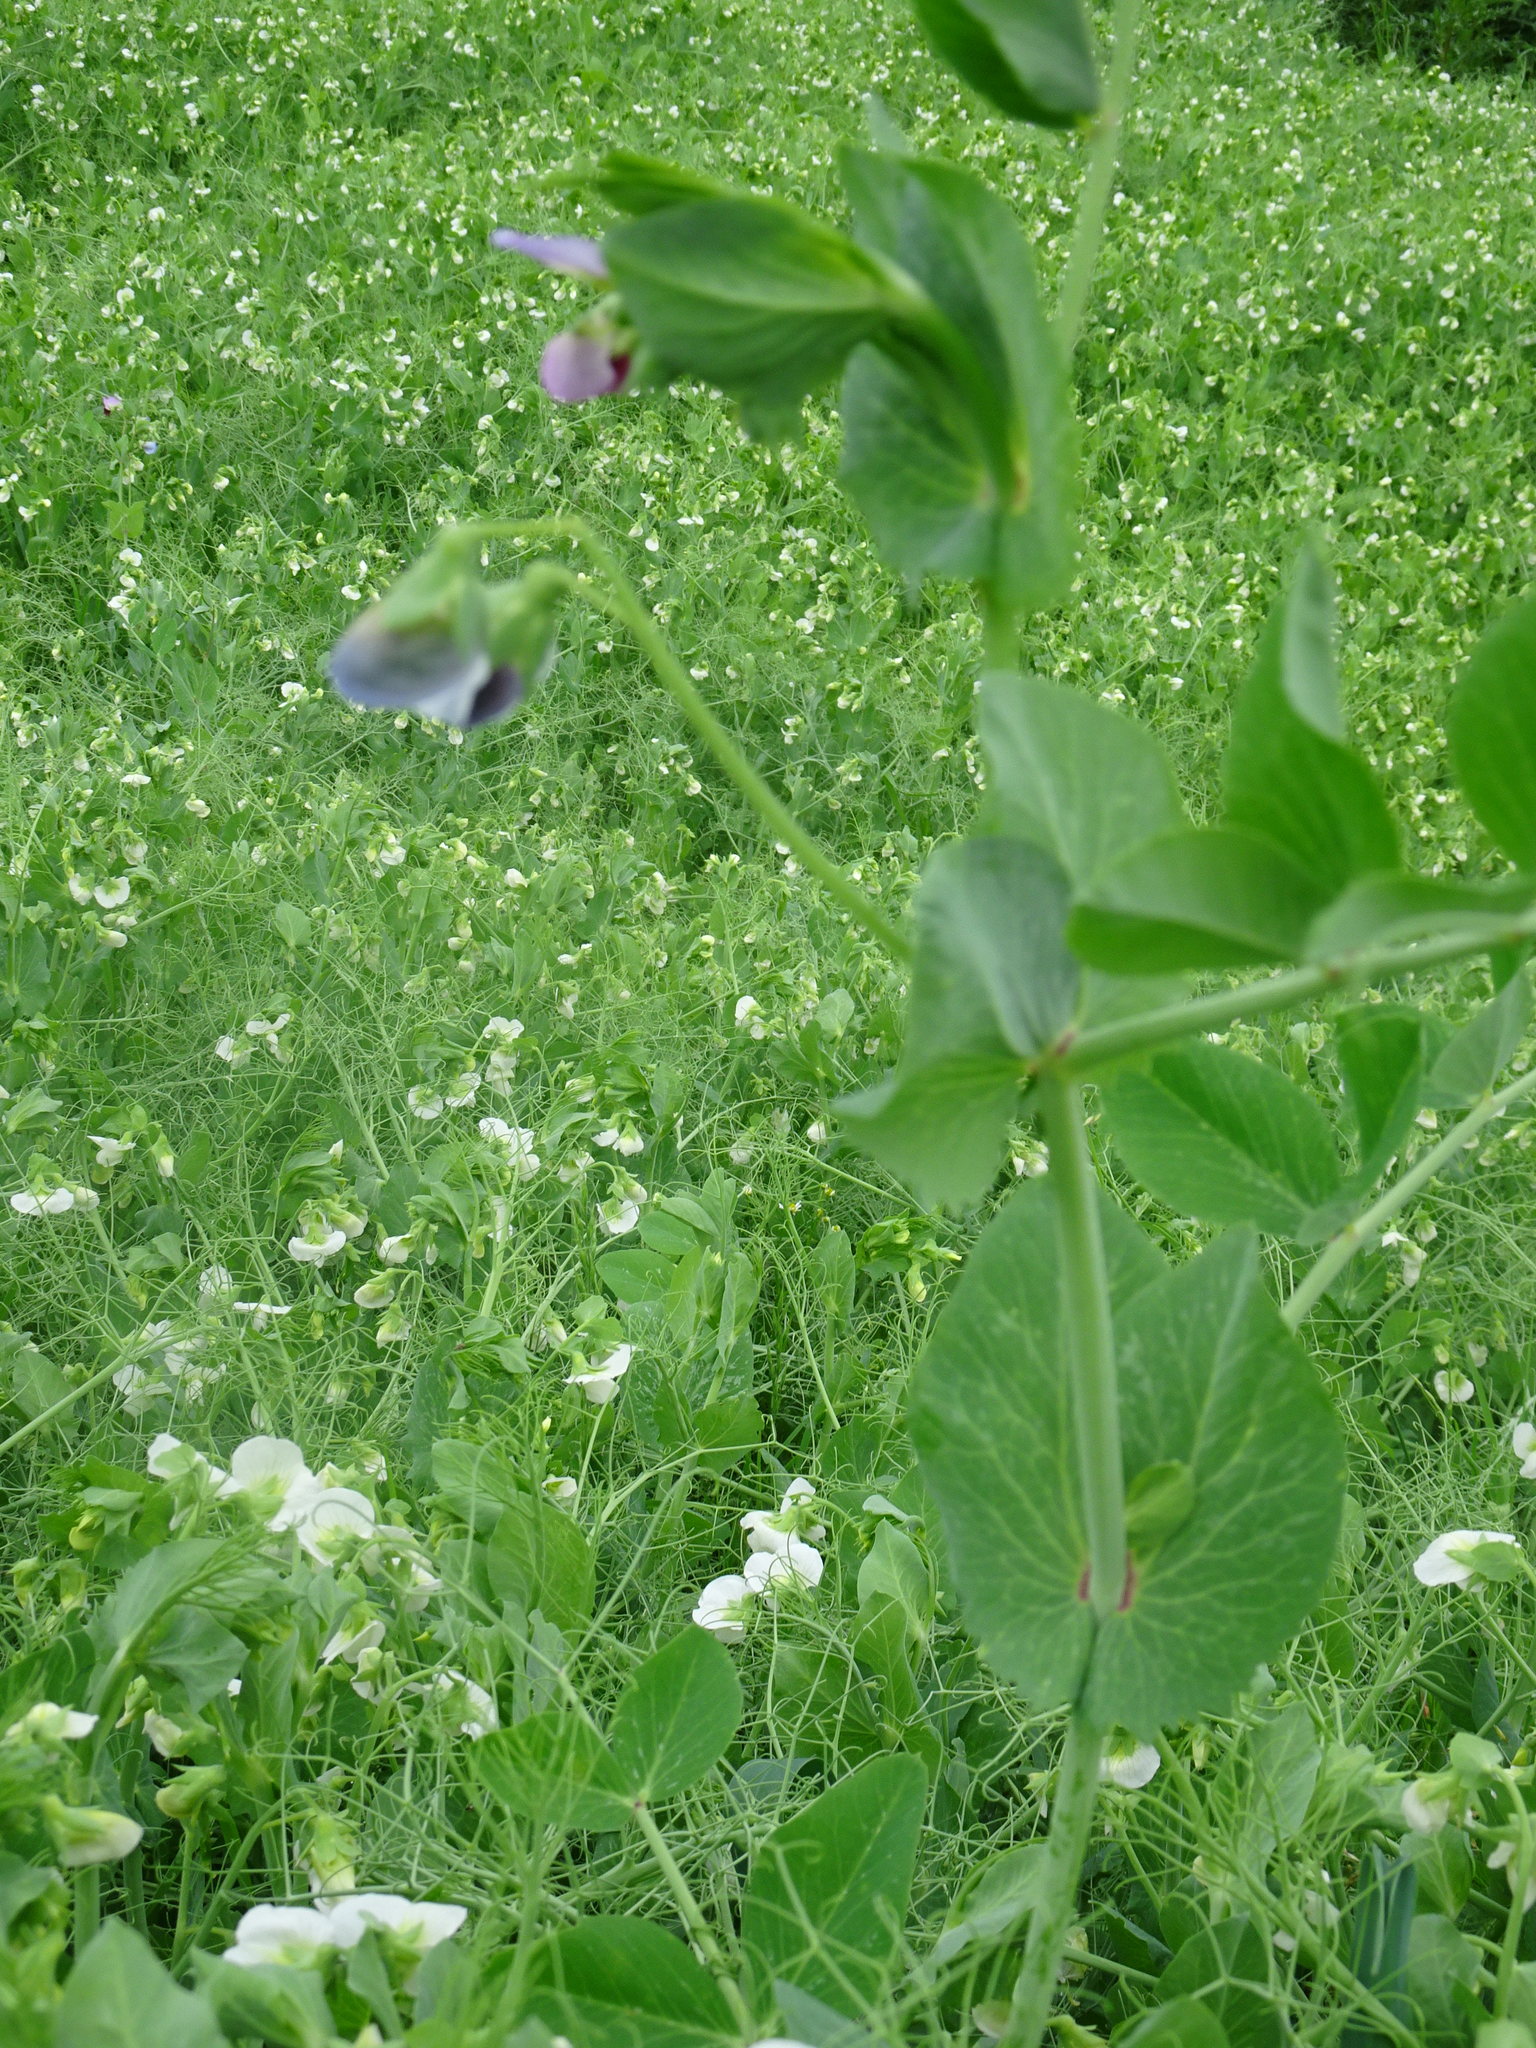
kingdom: Plantae
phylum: Tracheophyta
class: Magnoliopsida
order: Fabales
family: Fabaceae
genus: Lathyrus
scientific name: Lathyrus oleraceus
